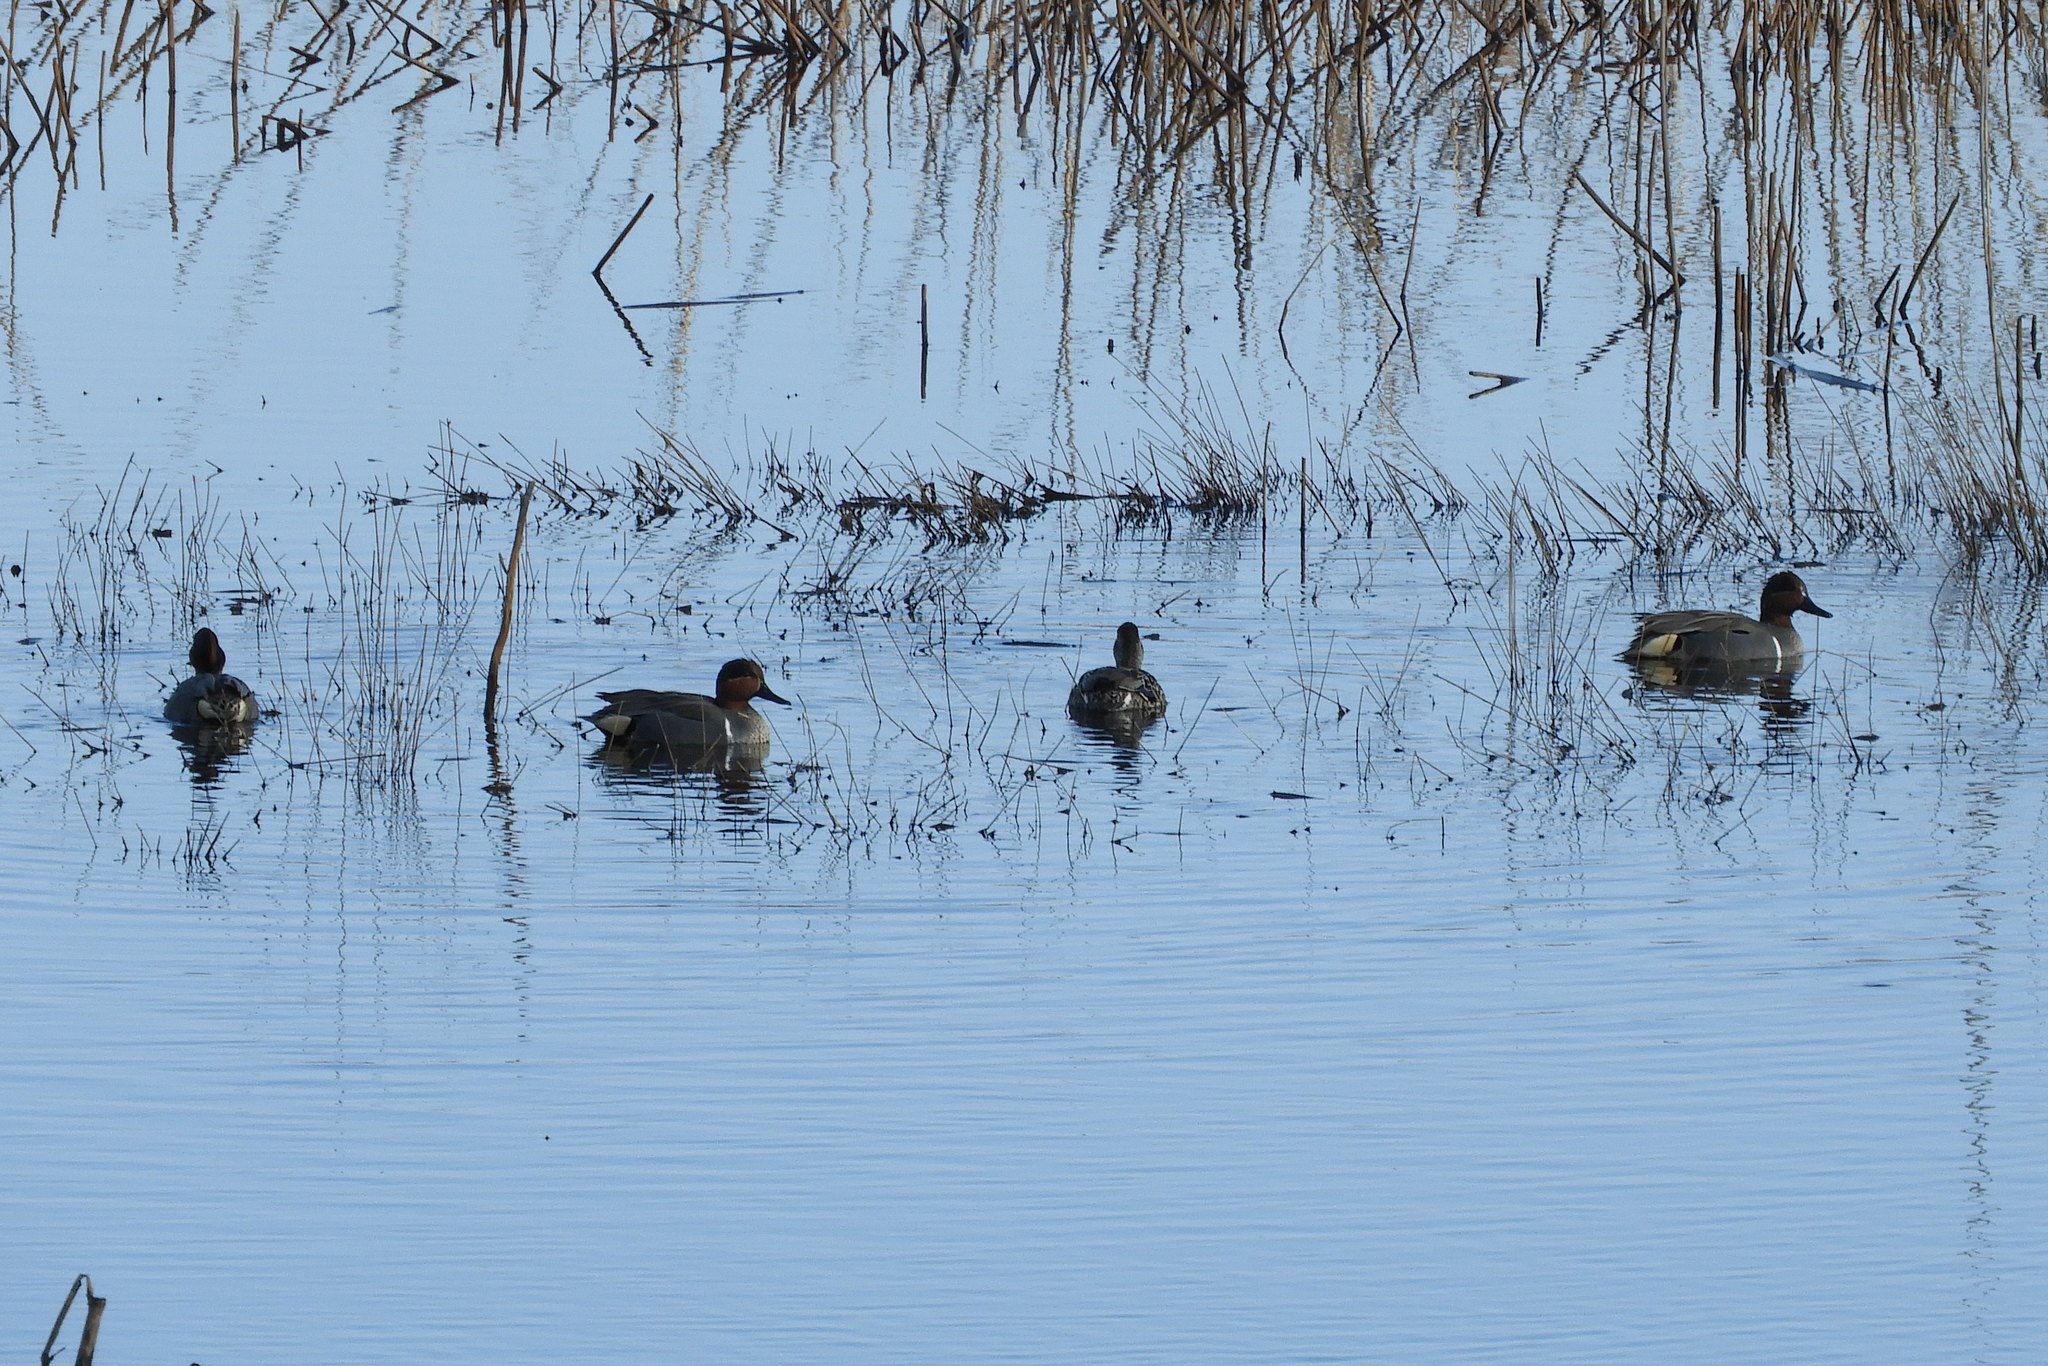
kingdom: Animalia
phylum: Chordata
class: Aves
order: Anseriformes
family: Anatidae
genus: Anas
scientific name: Anas crecca
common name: Eurasian teal
